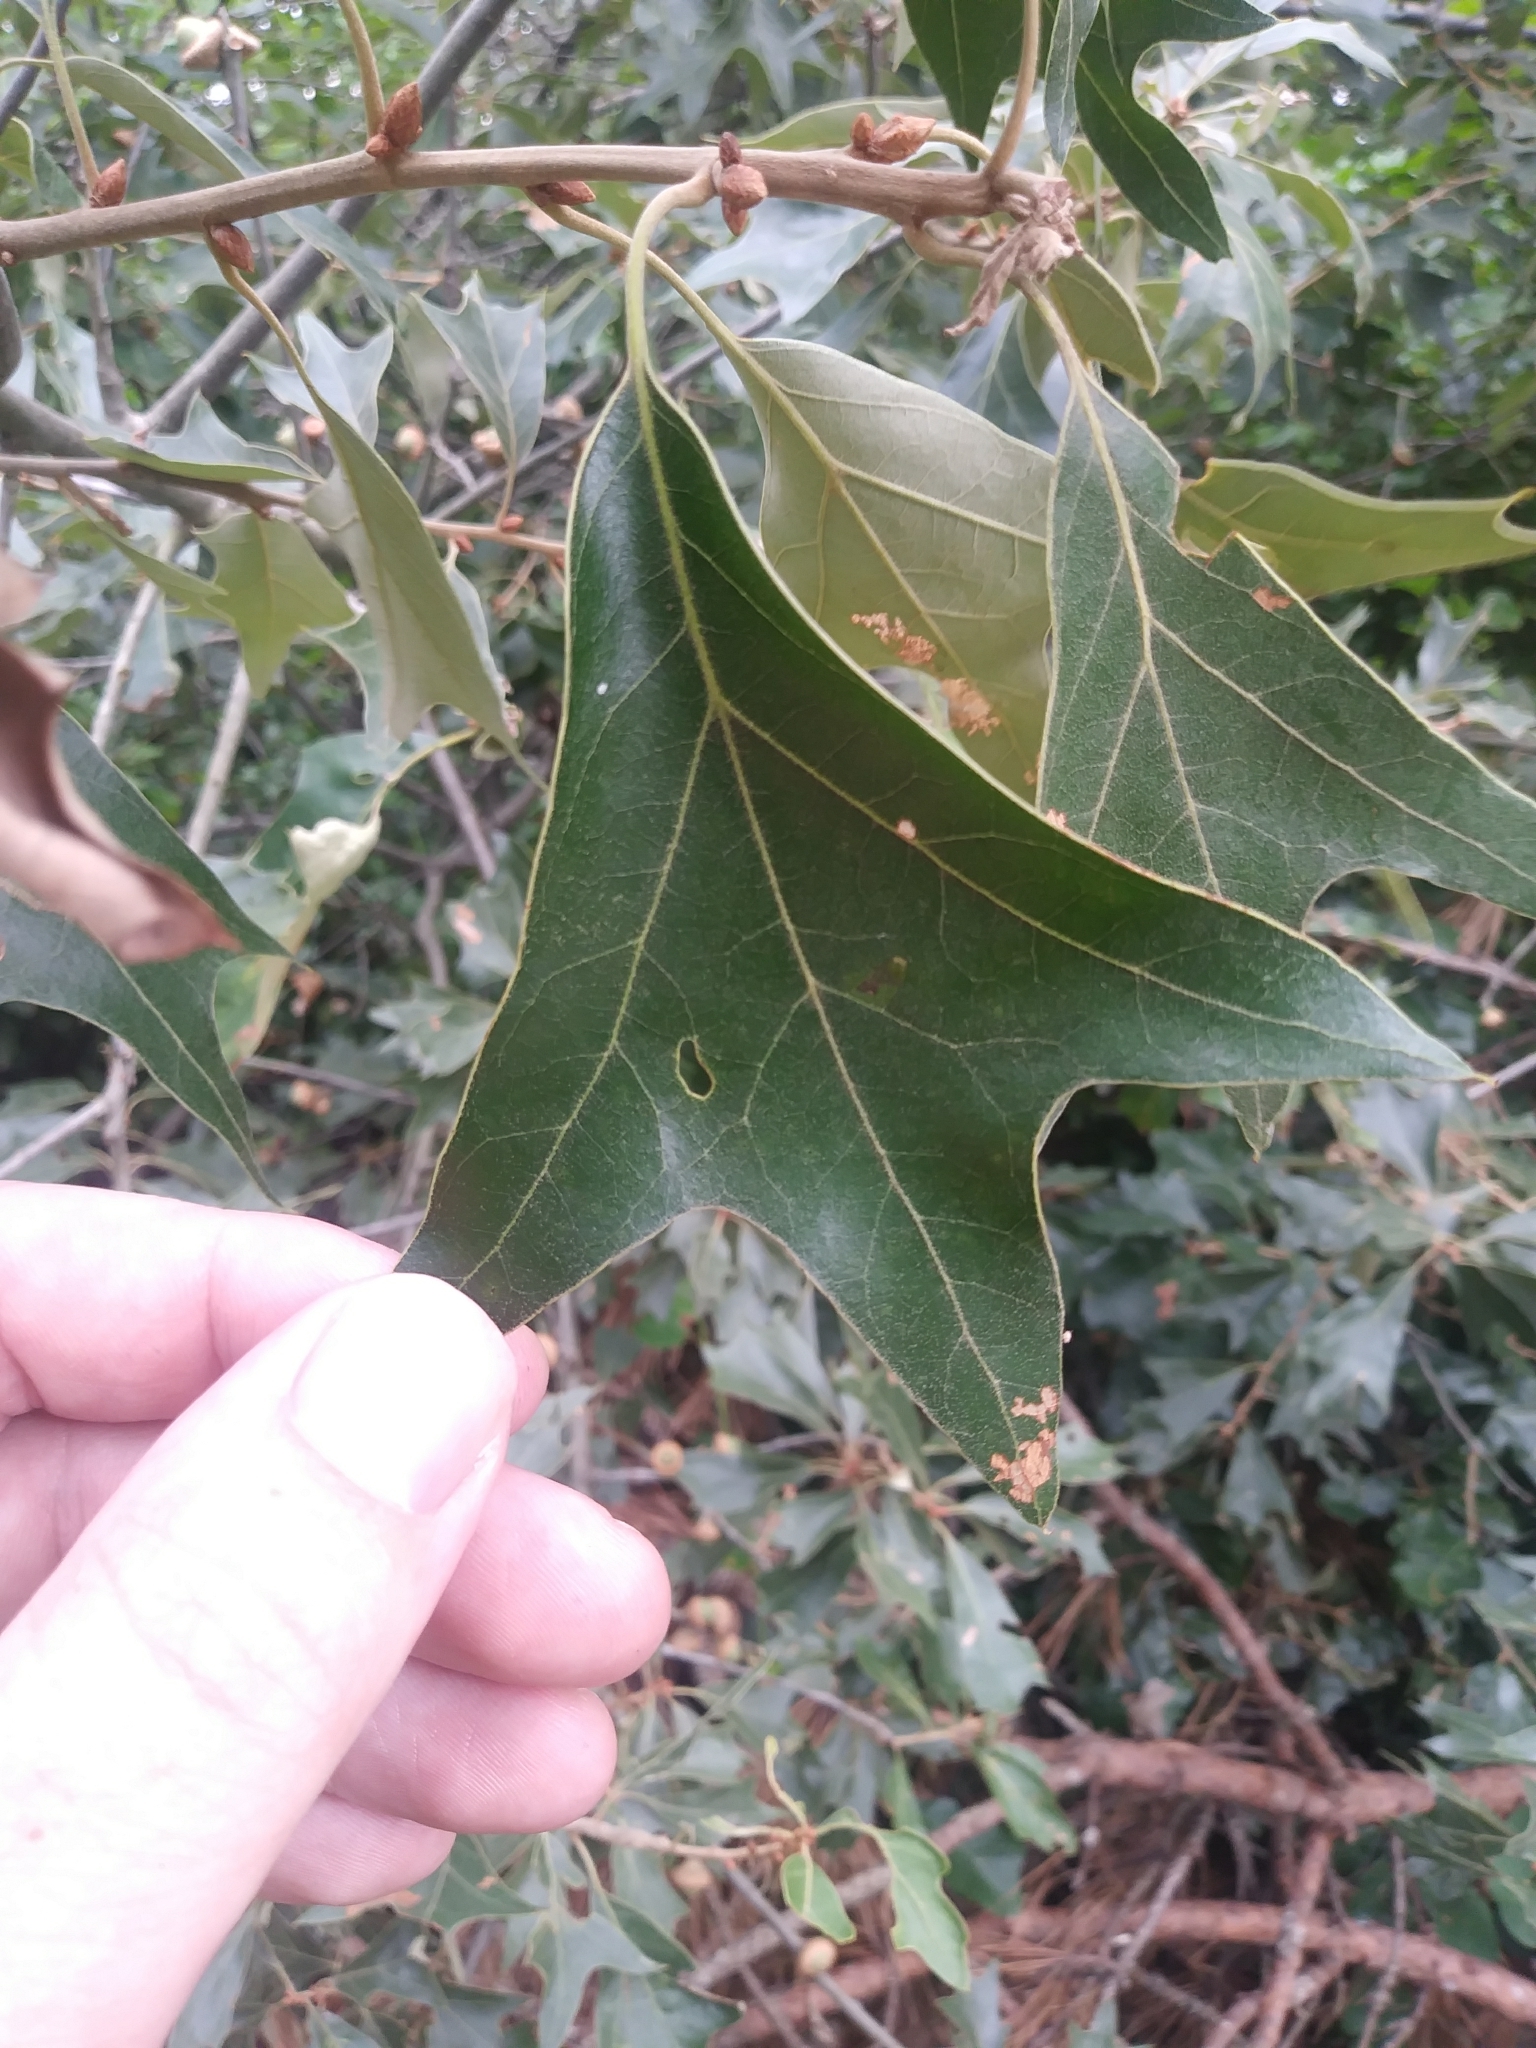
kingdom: Plantae
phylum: Tracheophyta
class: Magnoliopsida
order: Fagales
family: Fagaceae
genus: Quercus
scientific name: Quercus falcata
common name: Southern red oak
